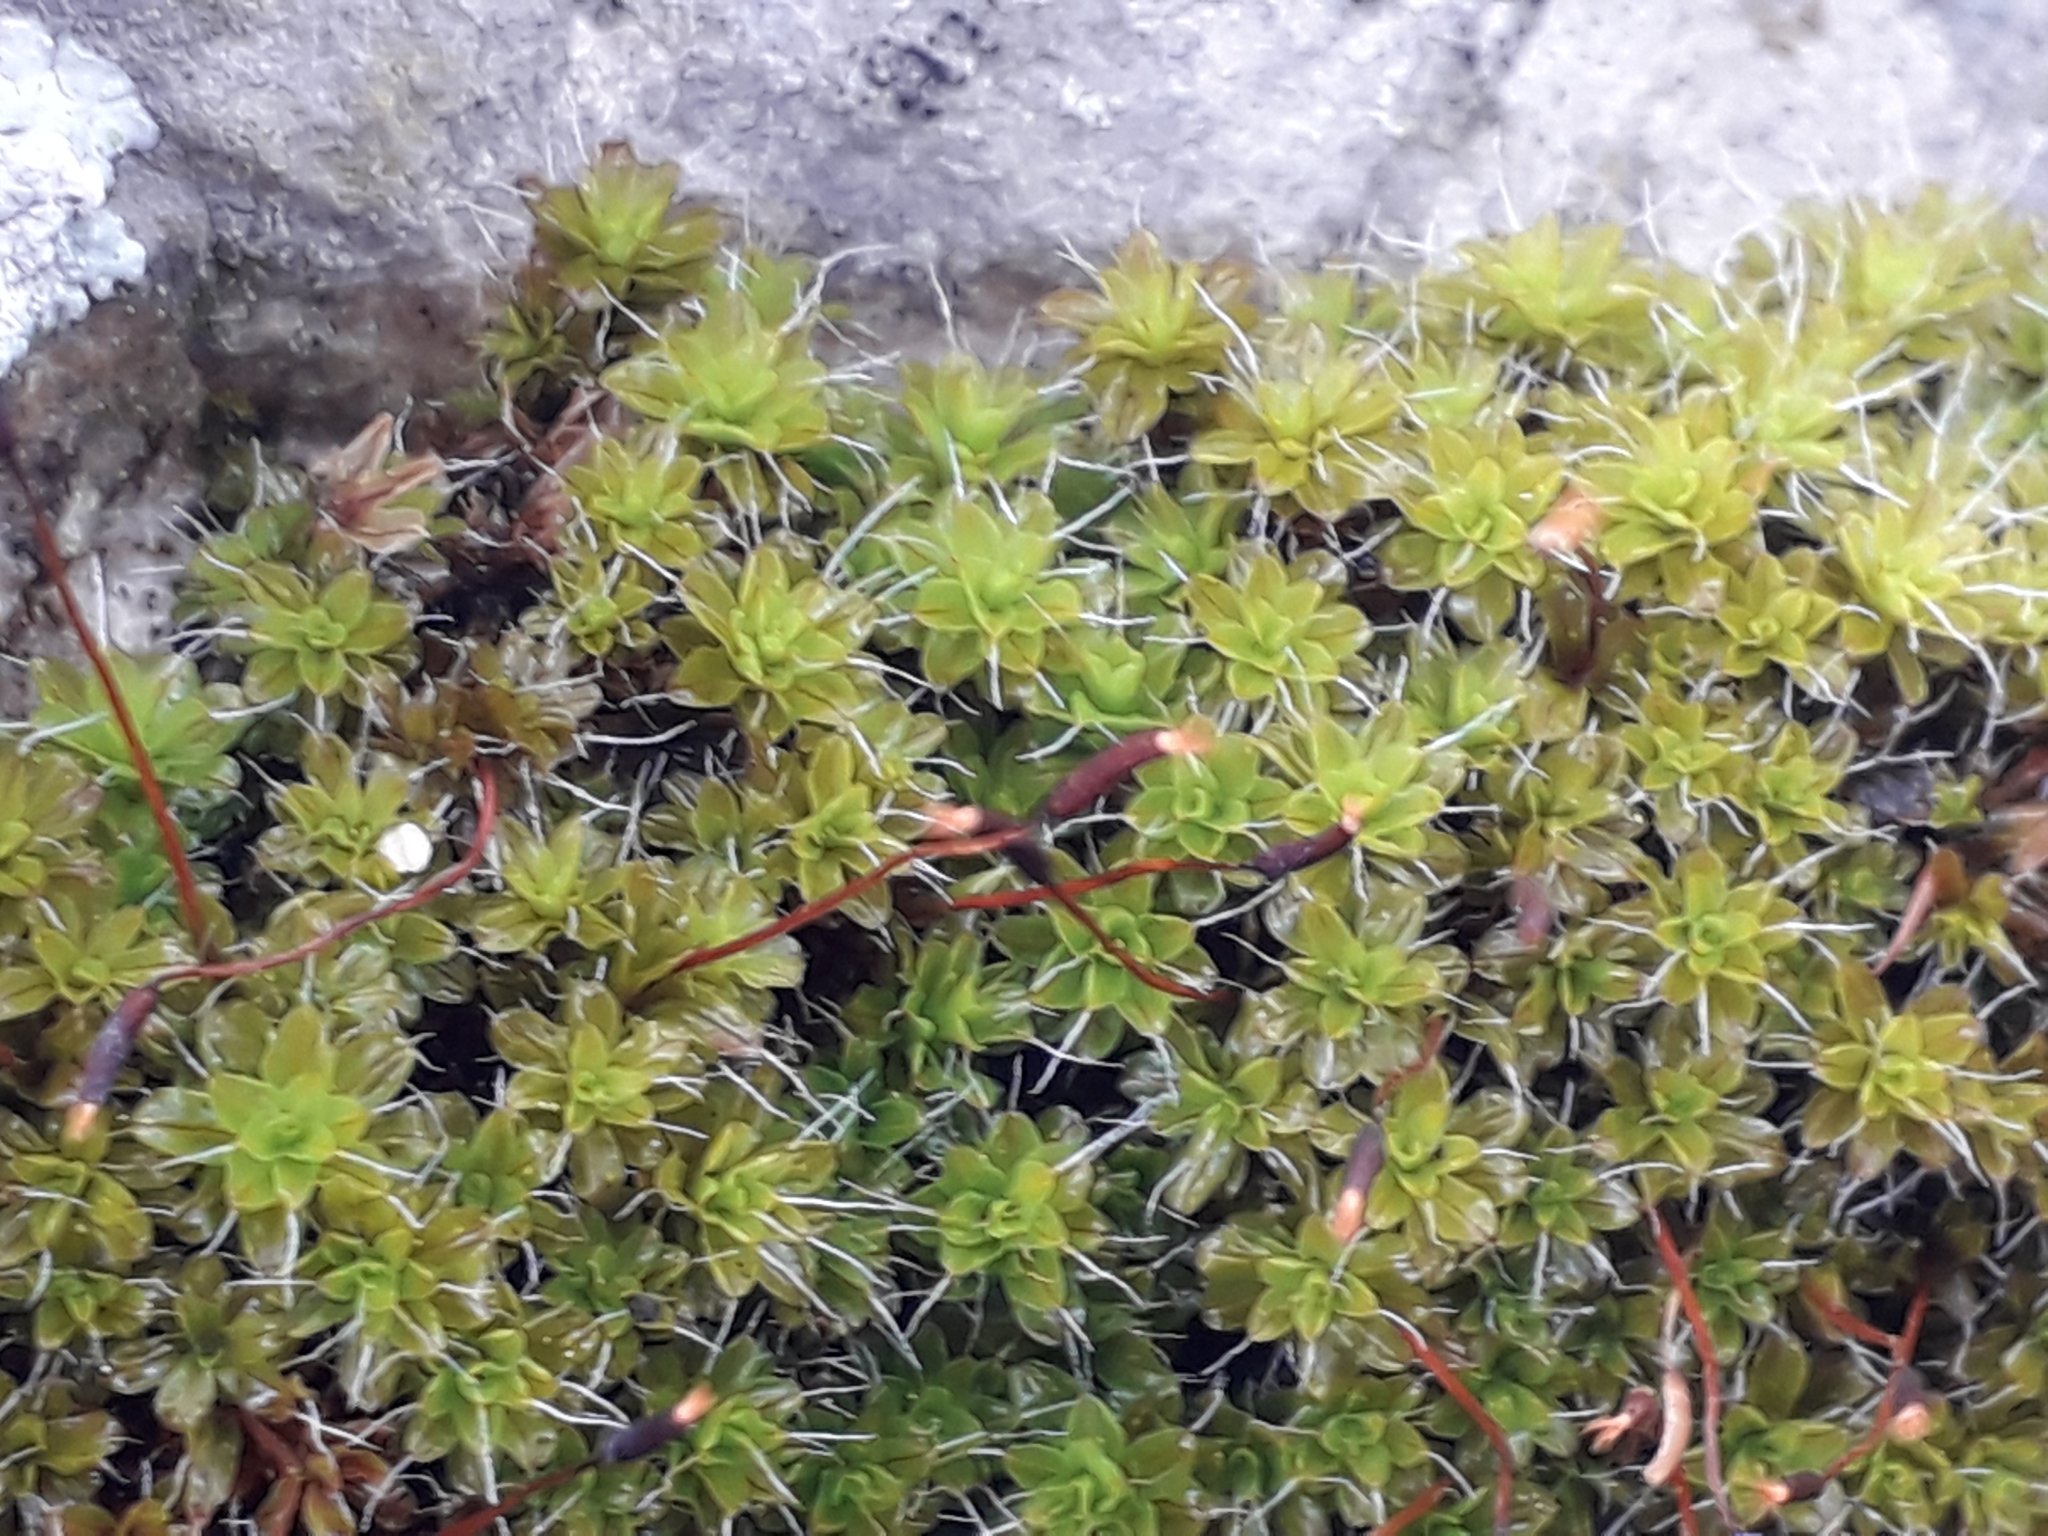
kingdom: Plantae
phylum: Bryophyta
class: Bryopsida
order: Pottiales
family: Pottiaceae
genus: Syntrichia
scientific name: Syntrichia ruralis
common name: Sidewalk screw moss
